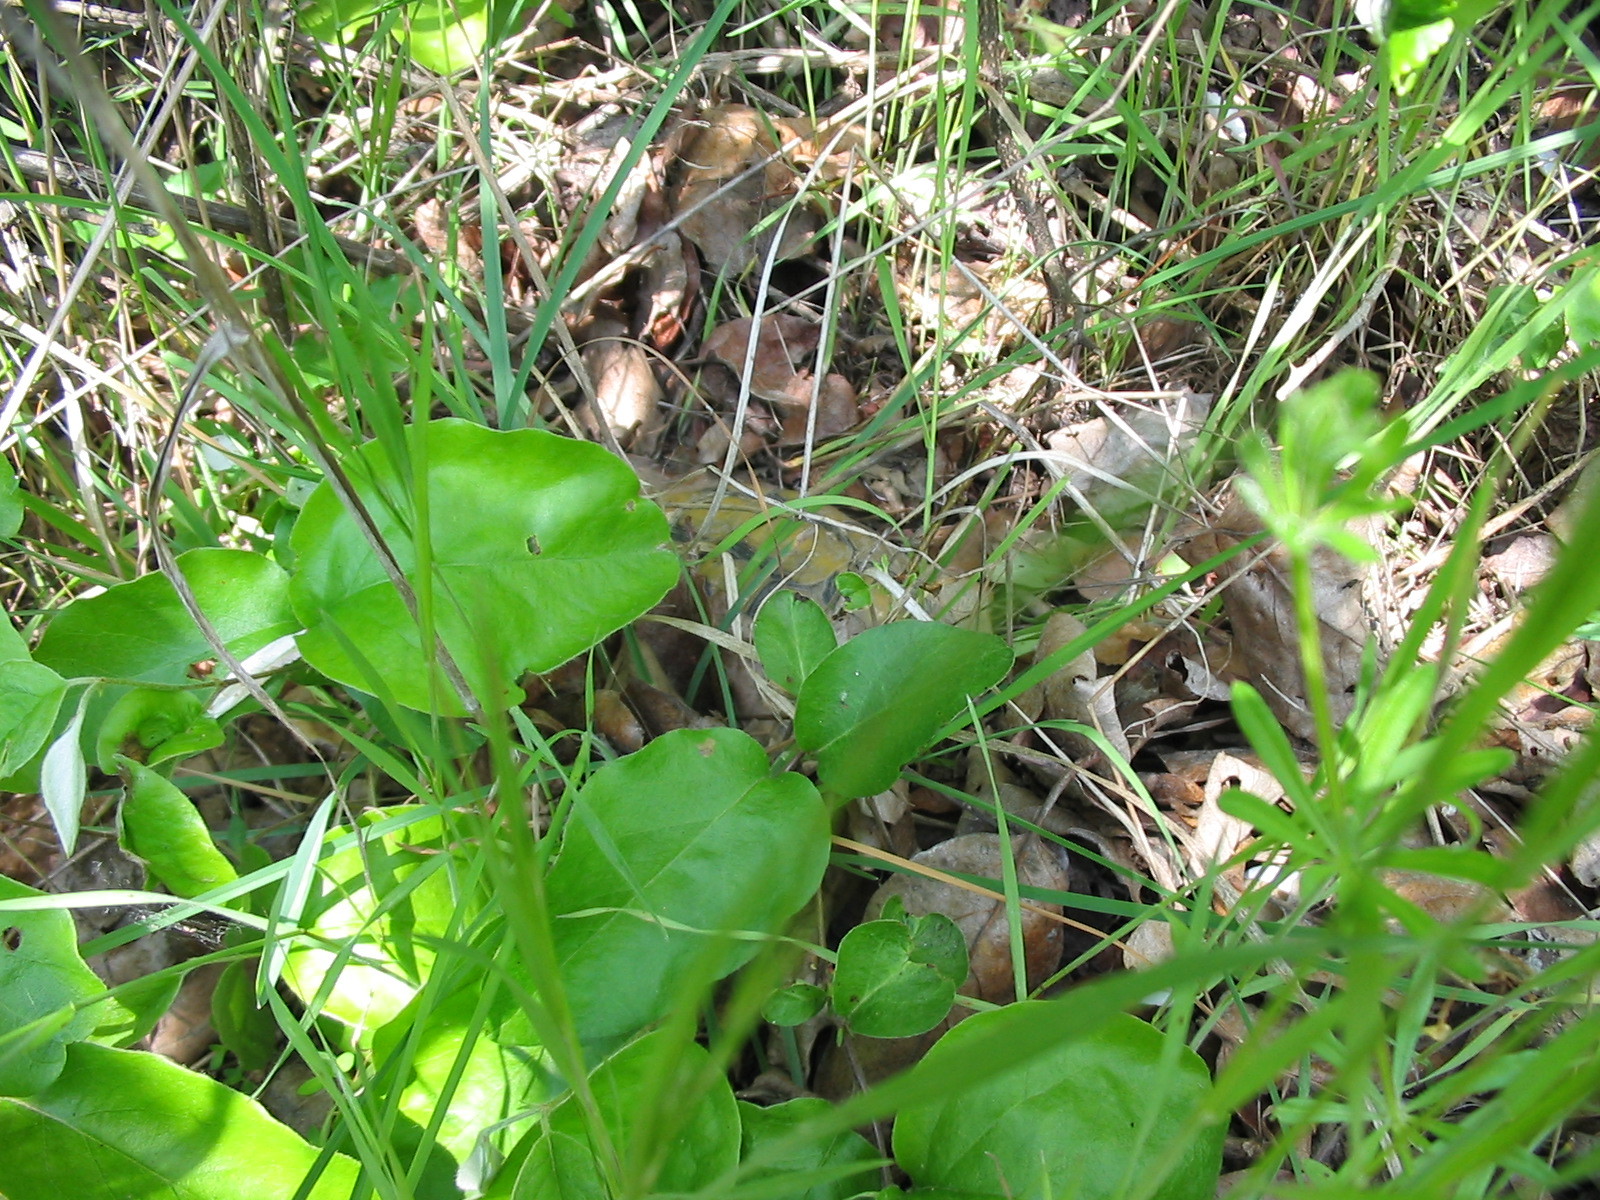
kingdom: Animalia
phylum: Chordata
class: Testudines
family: Testudinidae
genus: Testudo
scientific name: Testudo hermanni
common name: Hermann's tortoise
